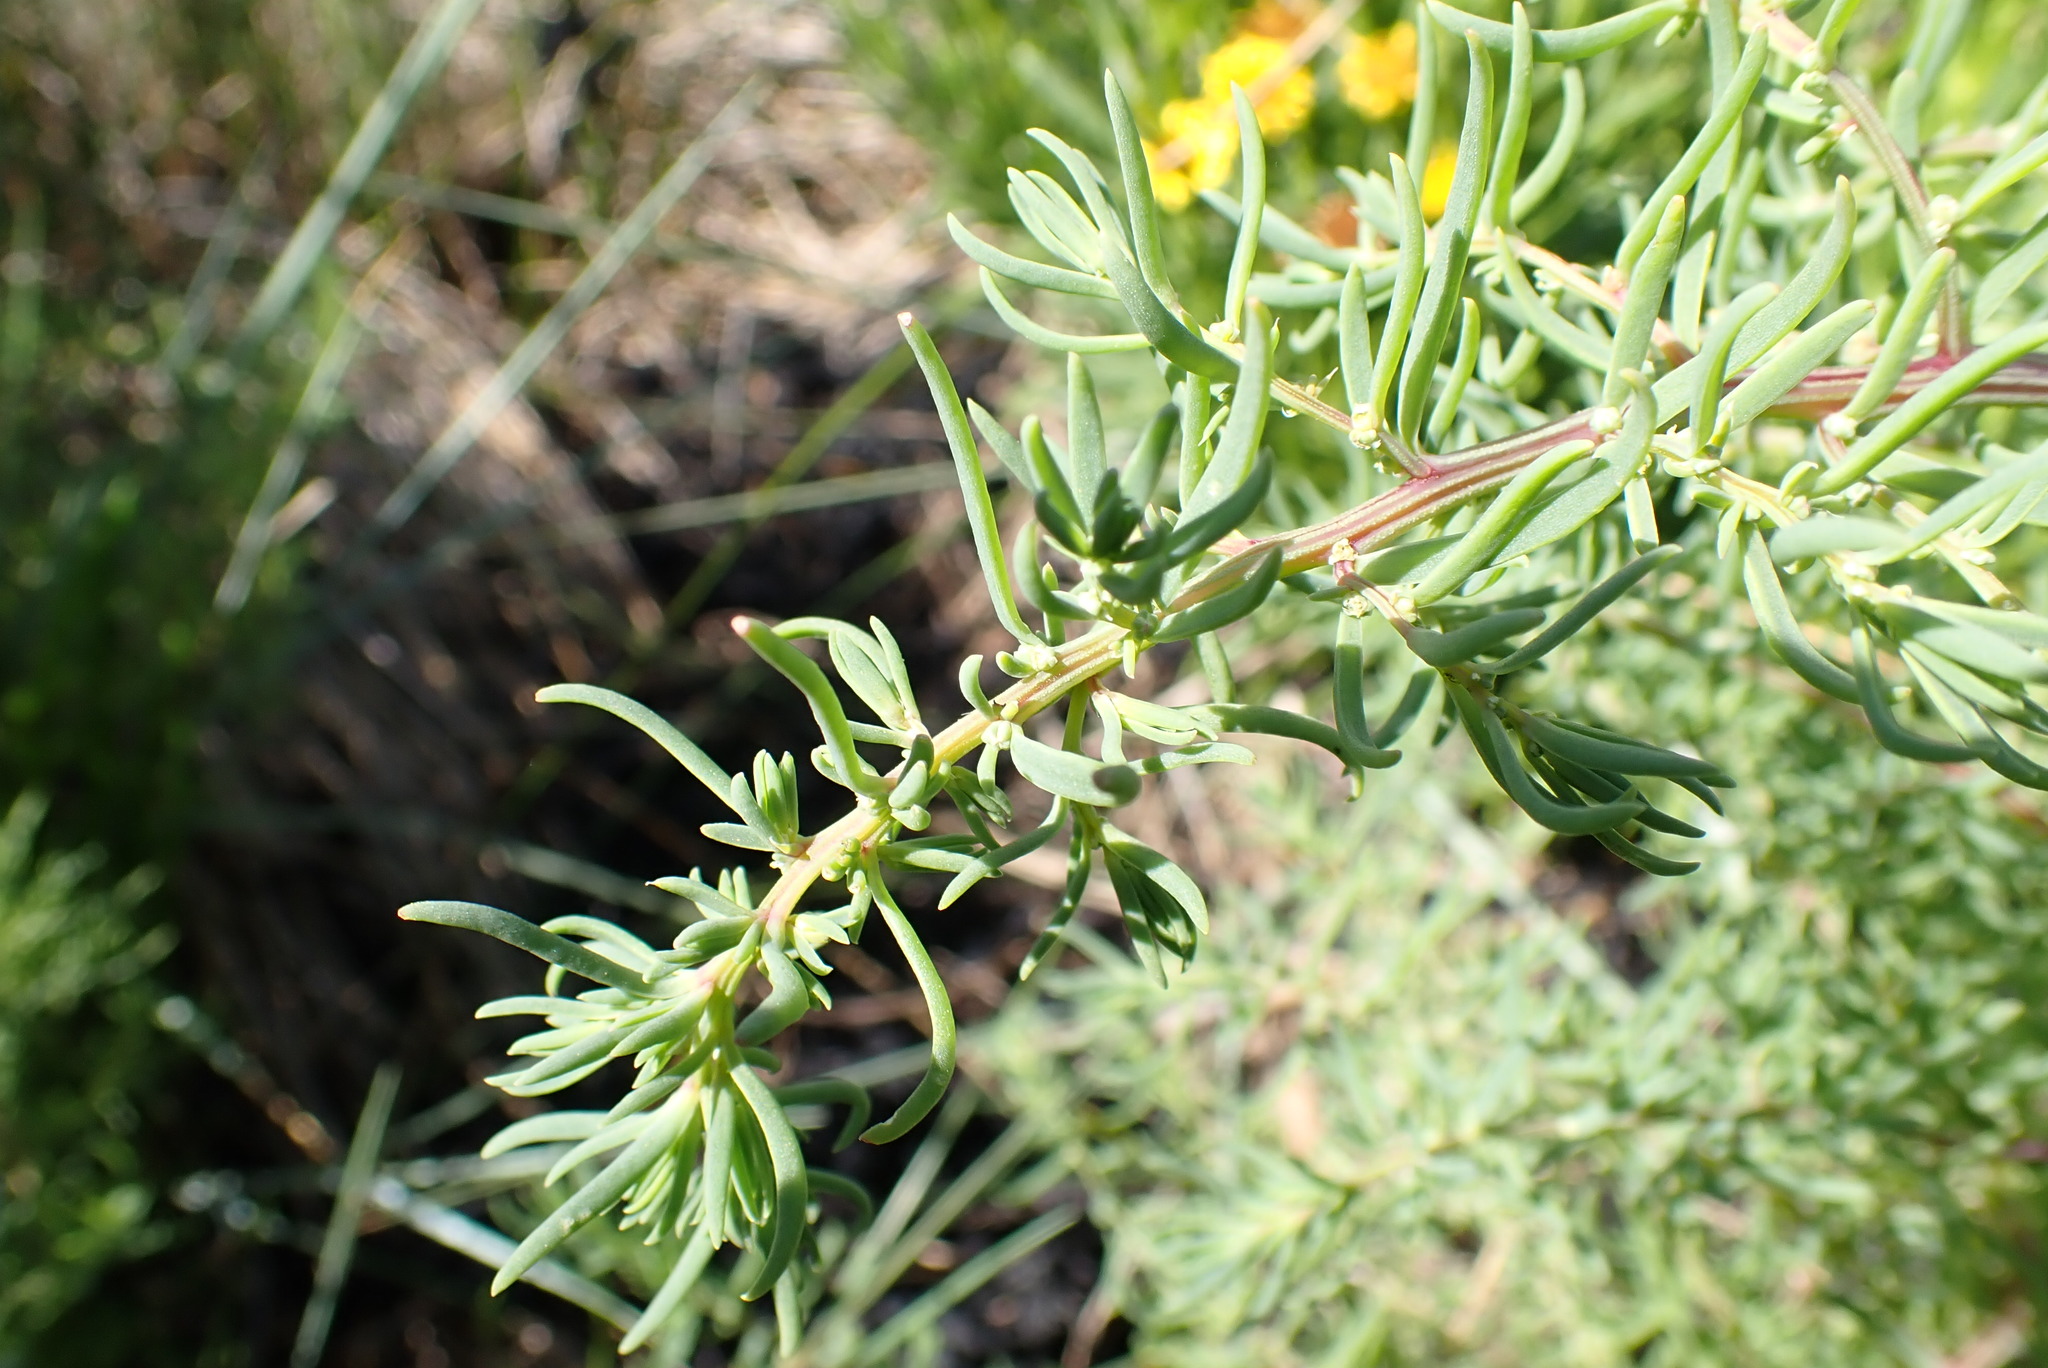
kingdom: Plantae
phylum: Tracheophyta
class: Magnoliopsida
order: Caryophyllales
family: Amaranthaceae
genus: Suaeda
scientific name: Suaeda maritima
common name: Annual sea-blite
